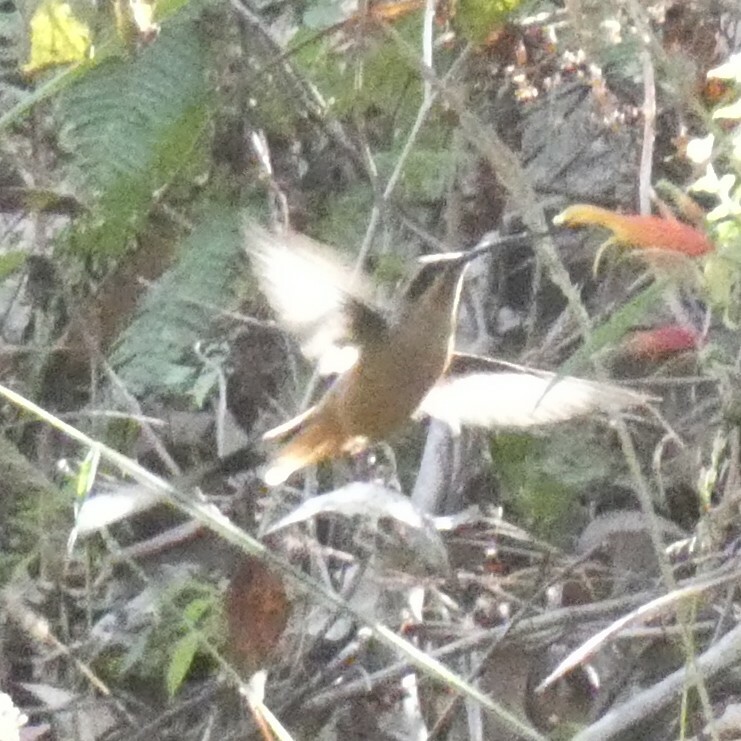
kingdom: Animalia
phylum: Chordata
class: Aves
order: Apodiformes
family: Trochilidae
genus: Phaethornis
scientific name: Phaethornis pretrei
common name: Planalto hermit
